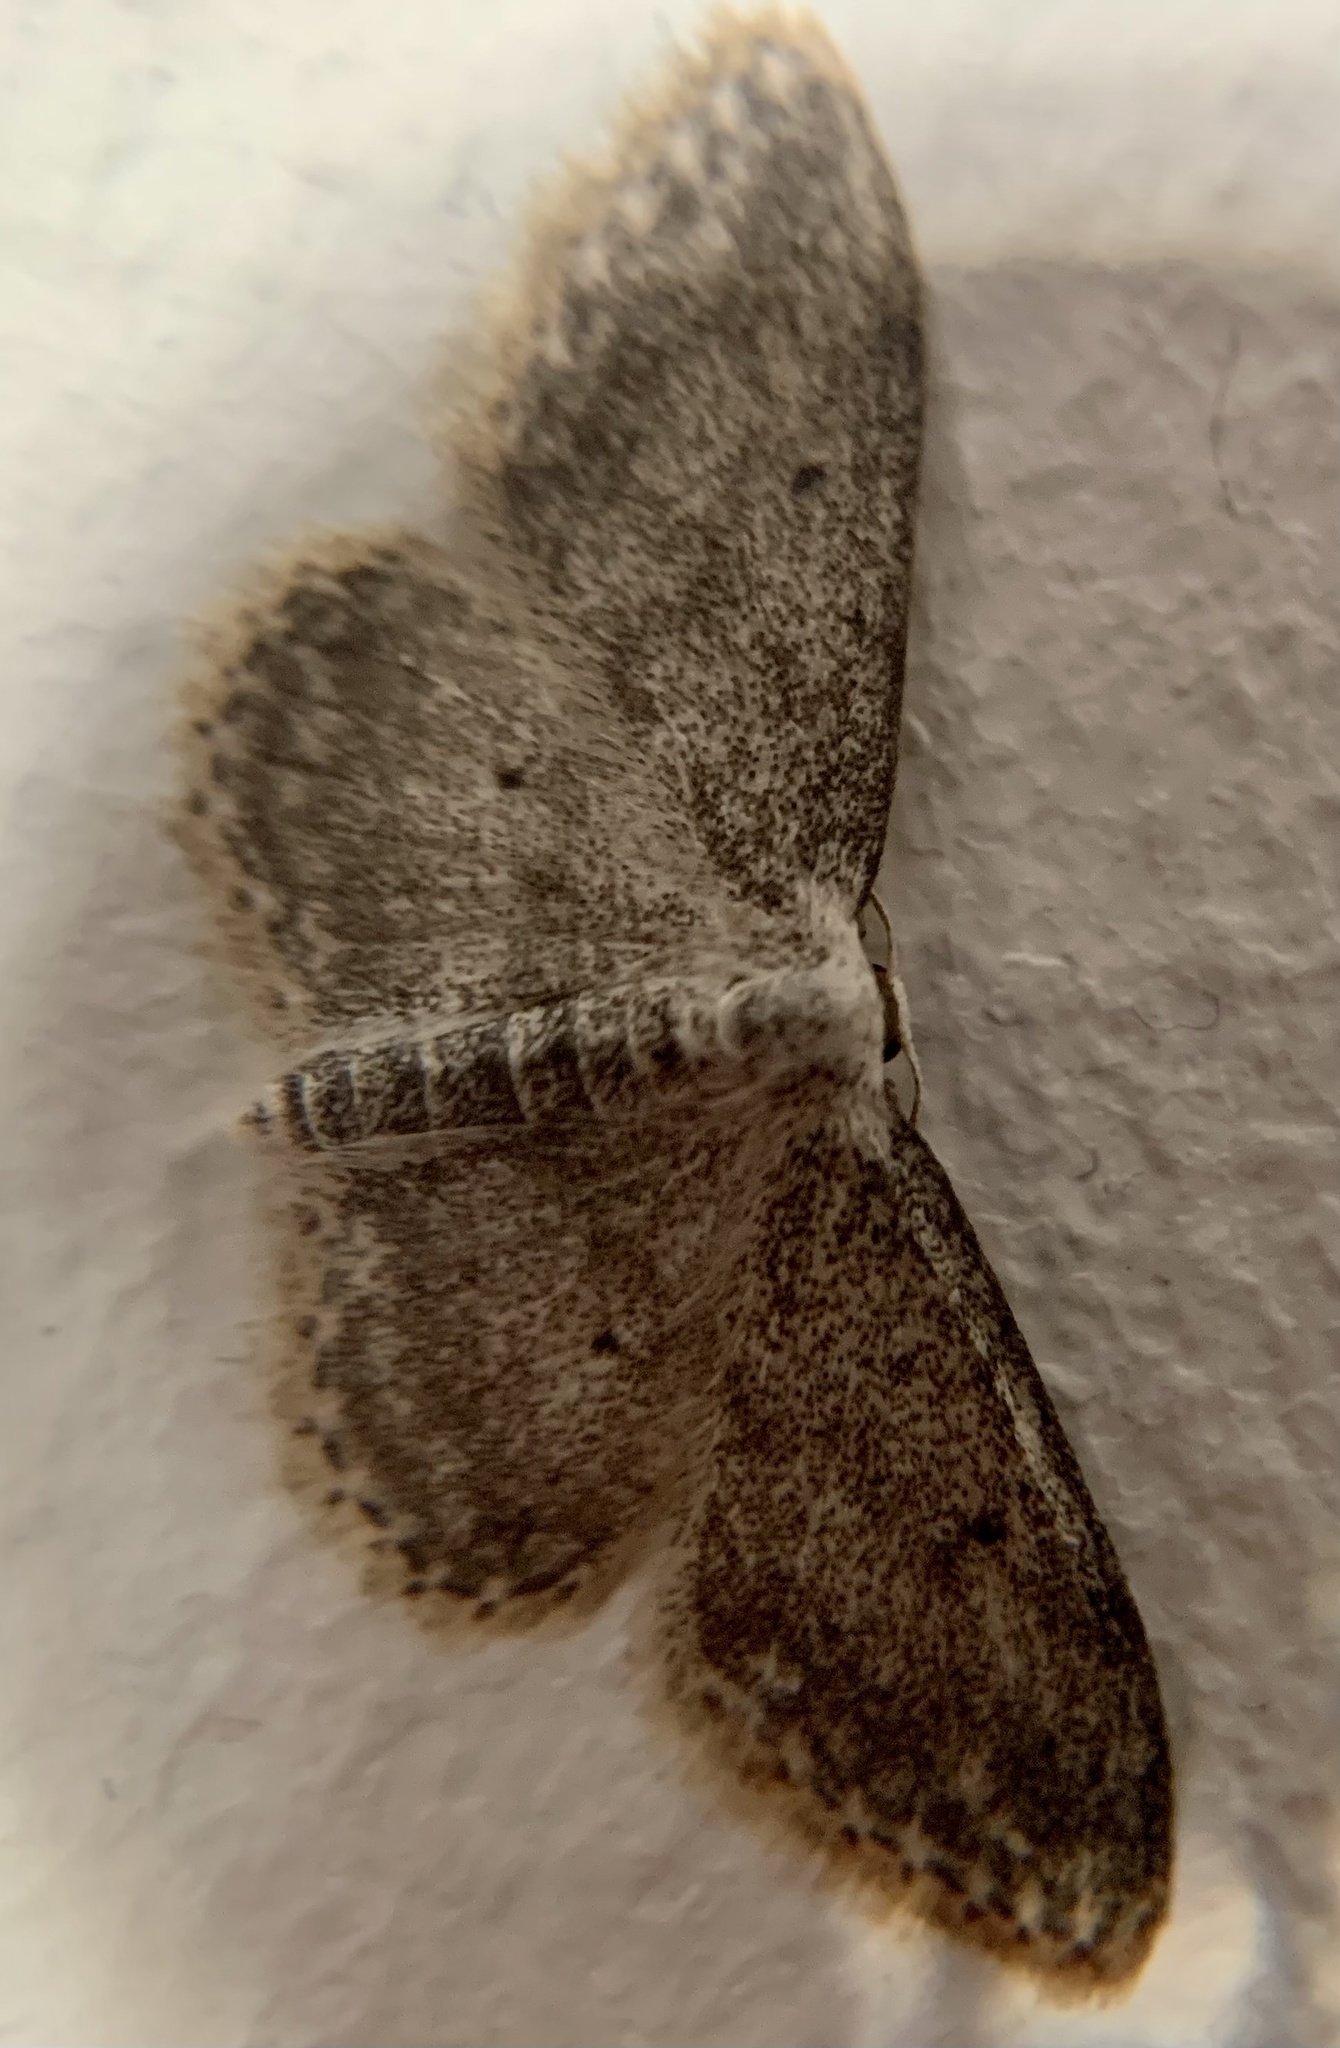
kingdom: Animalia
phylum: Arthropoda
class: Insecta
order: Lepidoptera
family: Geometridae
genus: Idaea
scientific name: Idaea seriata
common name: Small dusty wave
